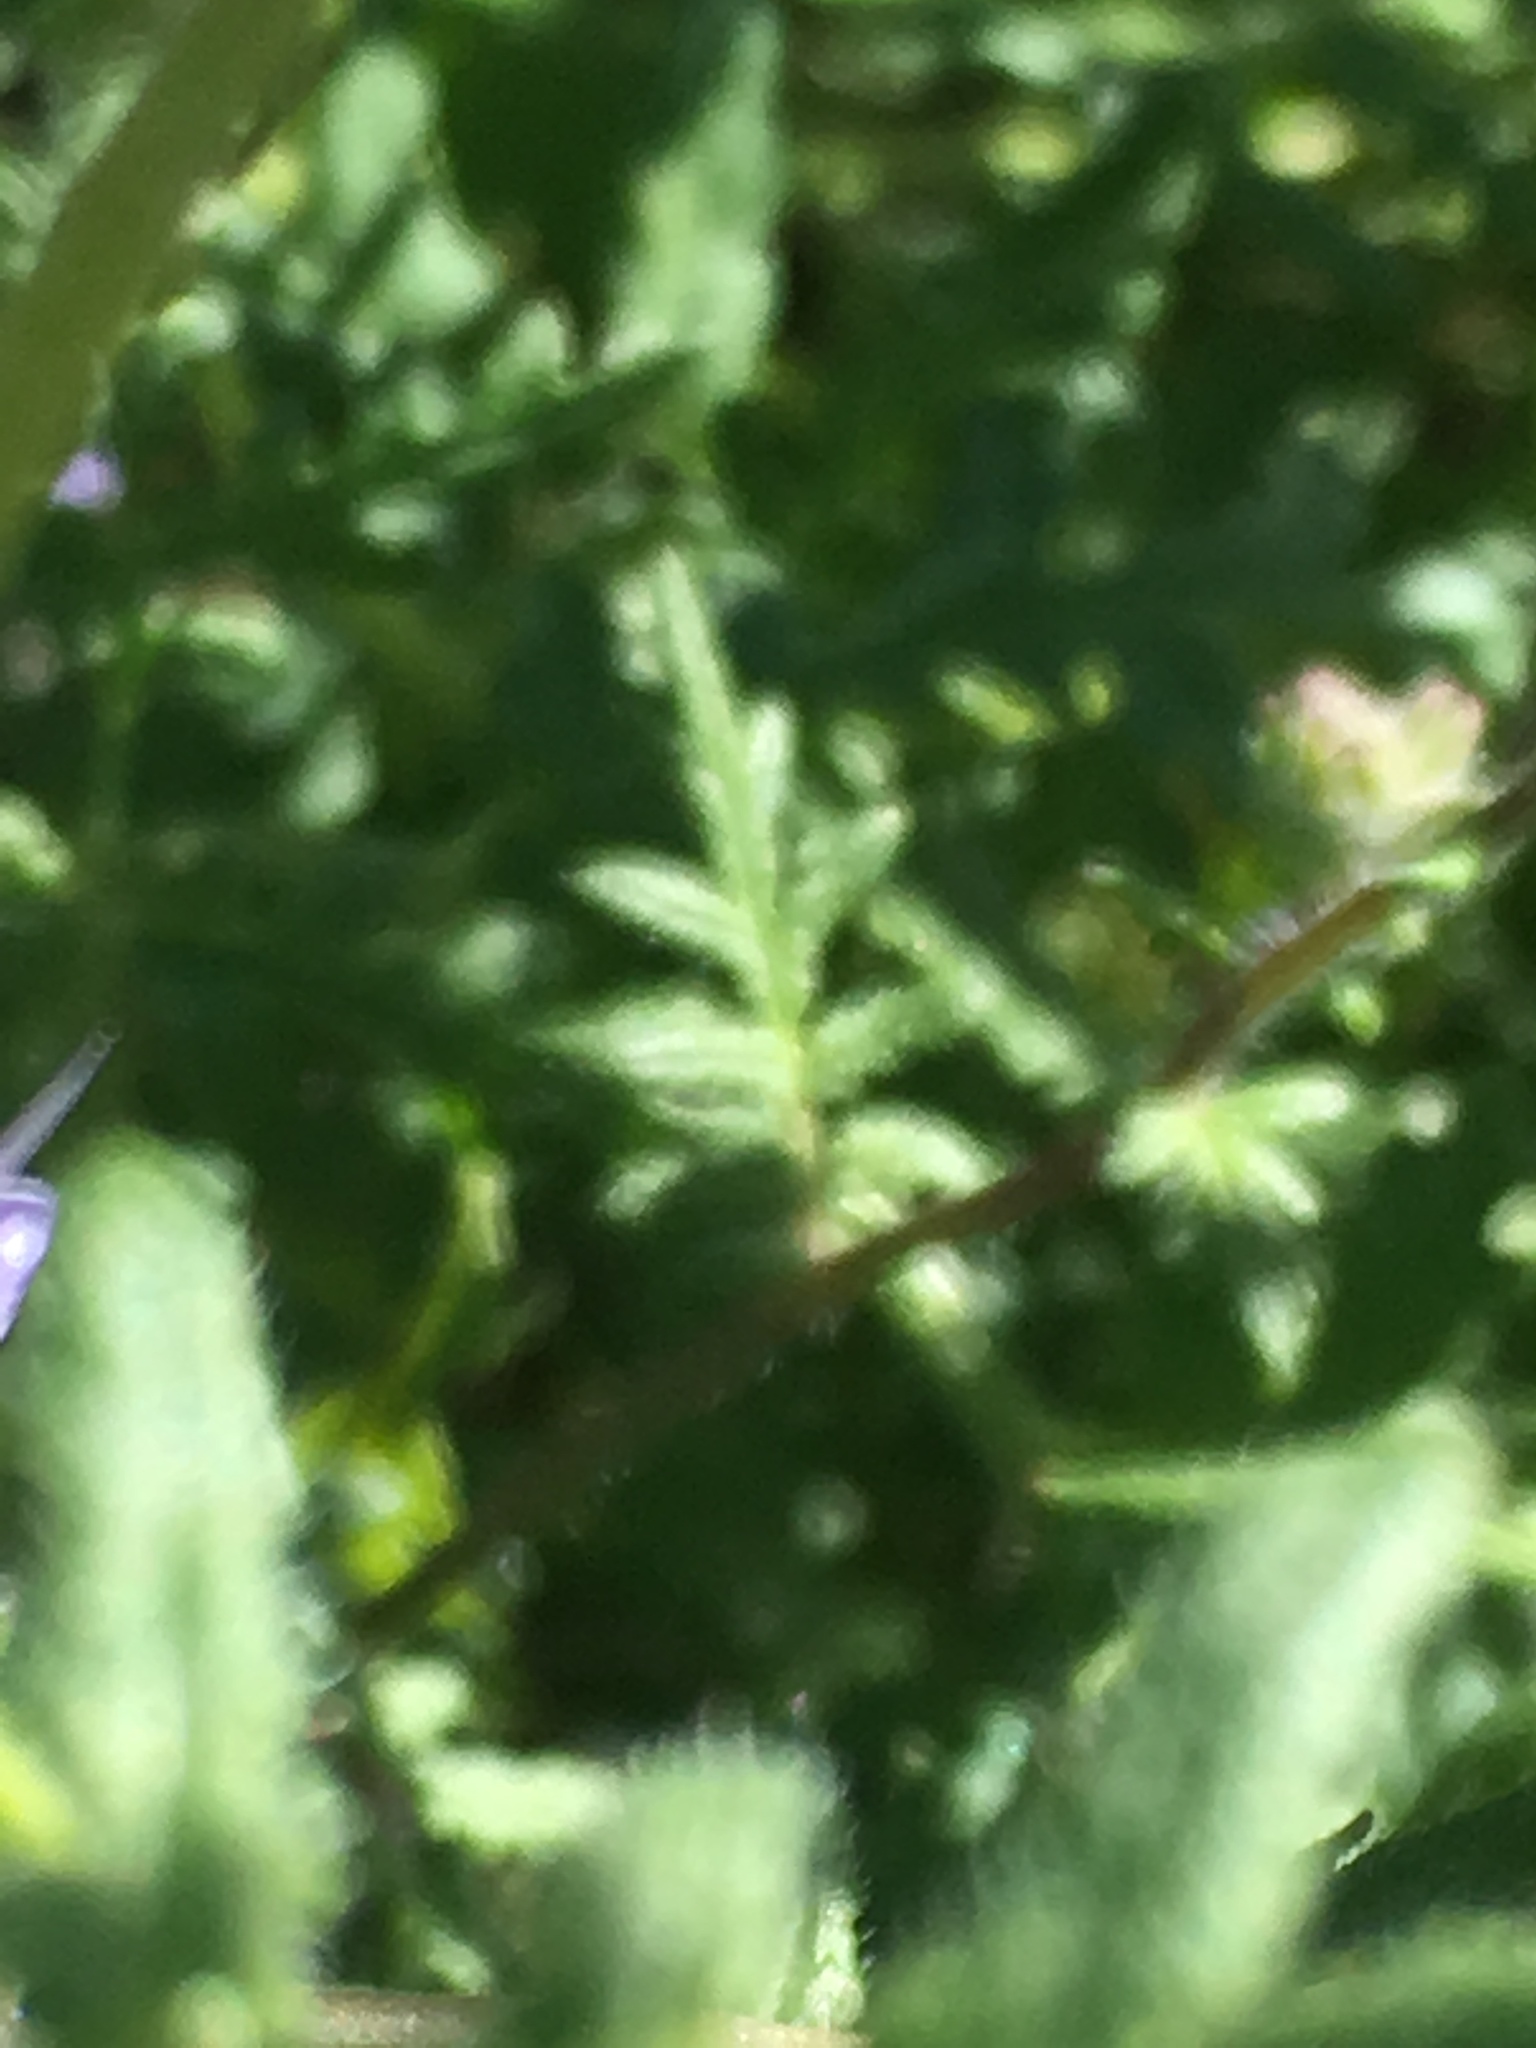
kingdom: Plantae
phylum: Tracheophyta
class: Magnoliopsida
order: Boraginales
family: Hydrophyllaceae
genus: Phacelia
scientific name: Phacelia distans
